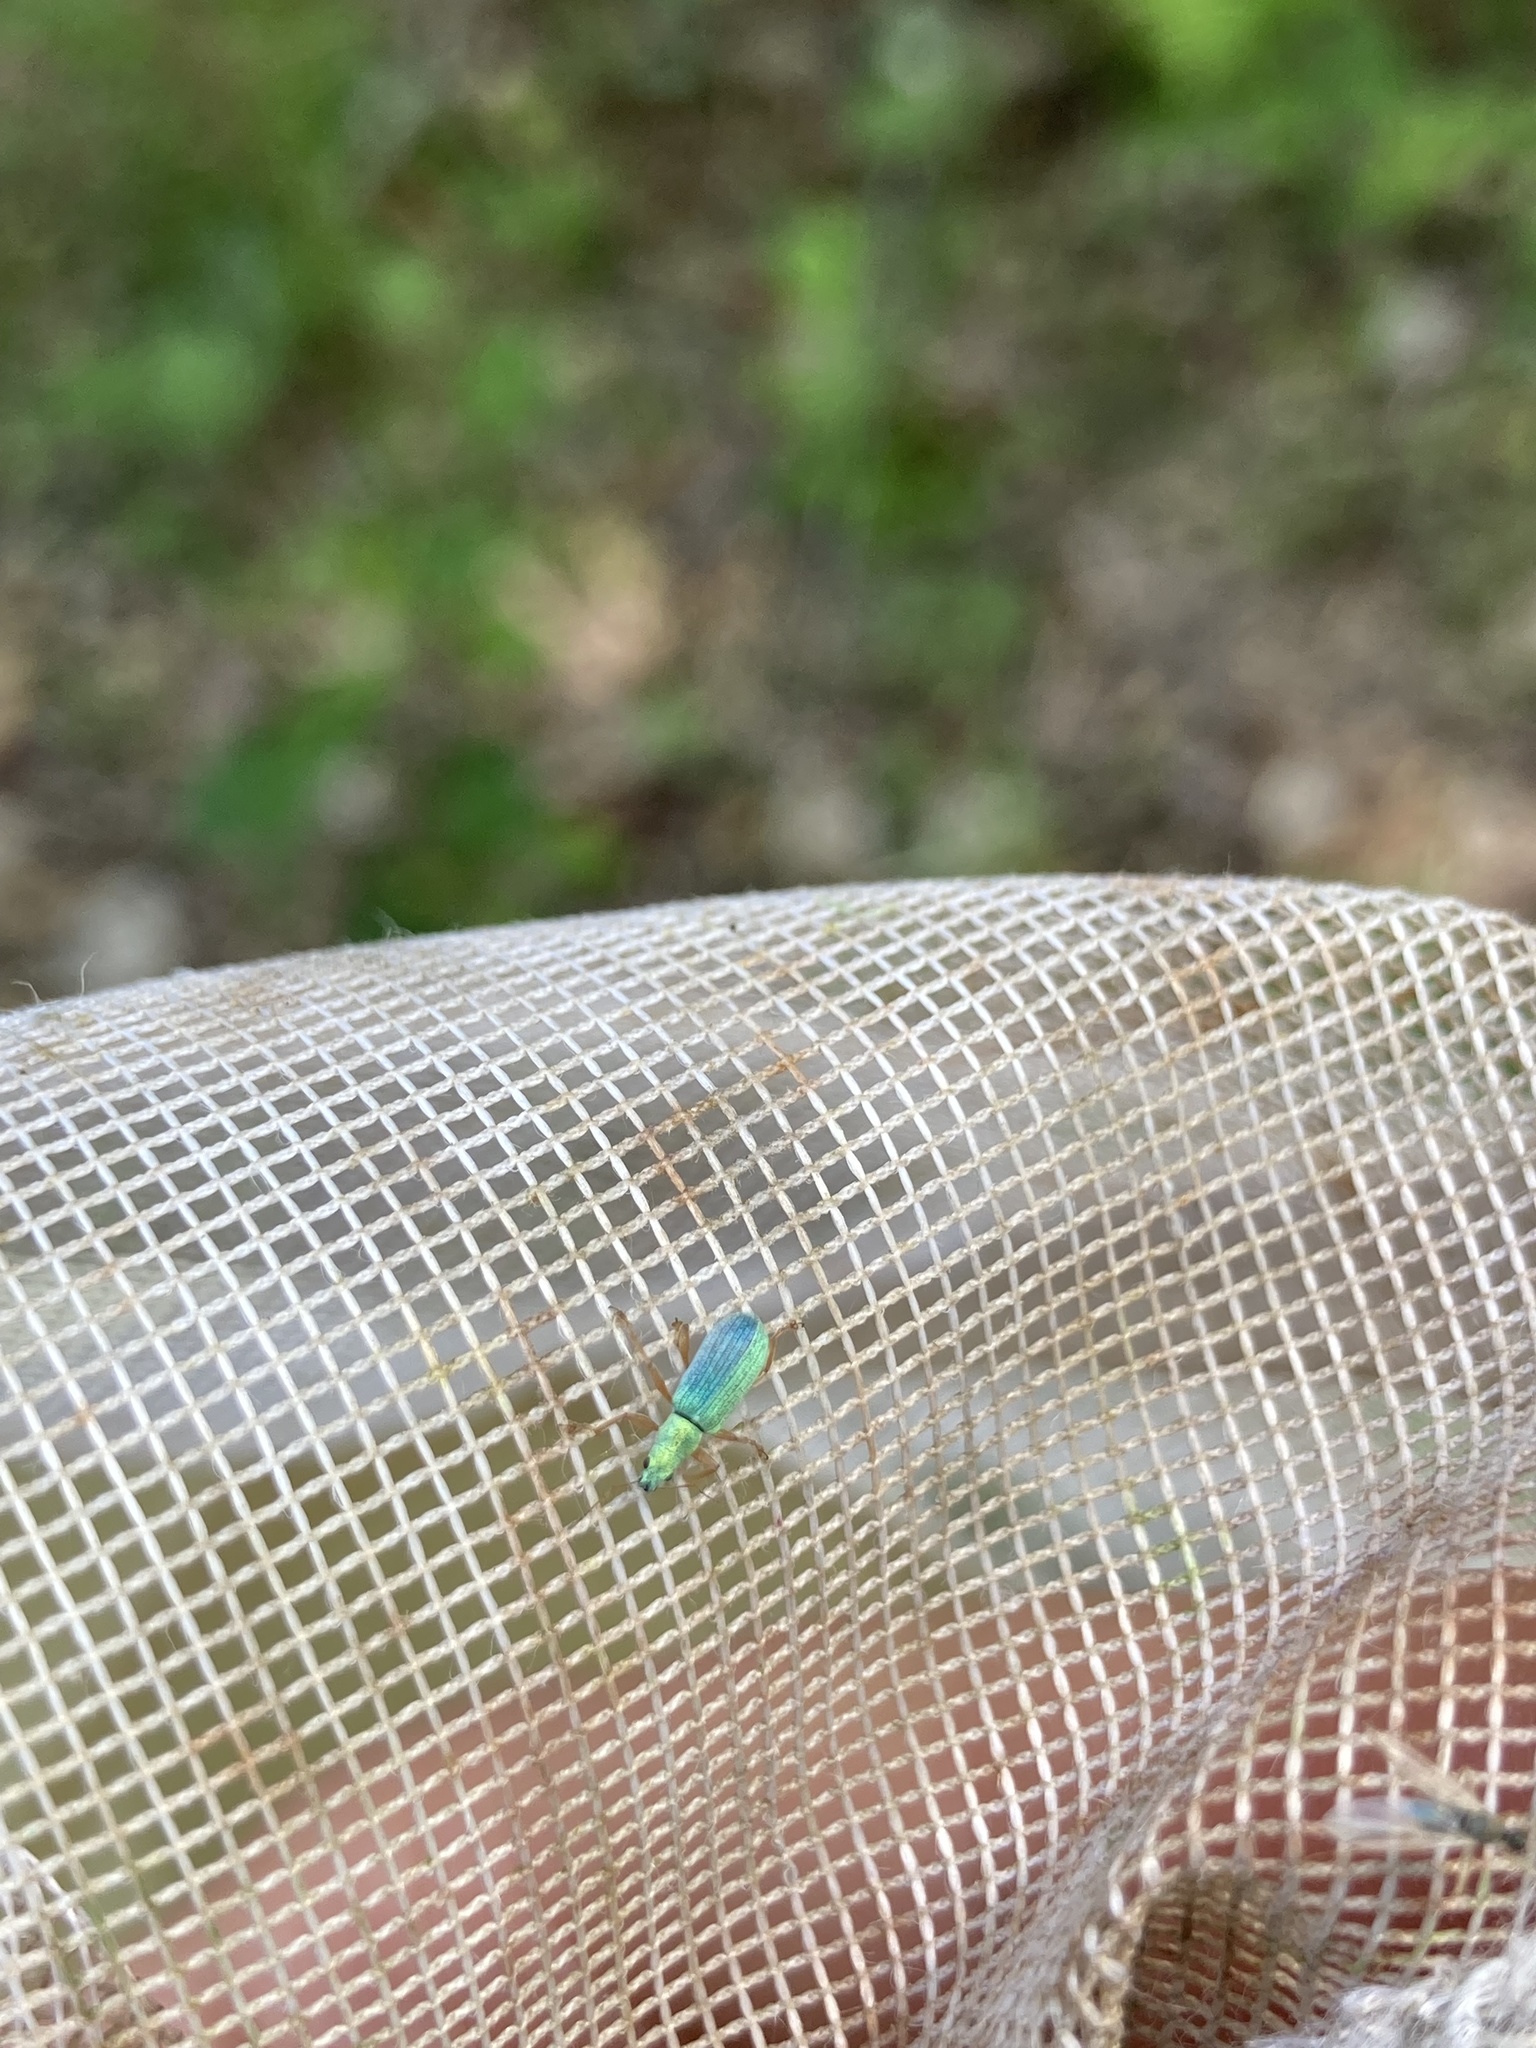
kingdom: Animalia
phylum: Arthropoda
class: Insecta
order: Coleoptera
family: Curculionidae
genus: Polydrusus
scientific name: Polydrusus impressifrons
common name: Weevil
